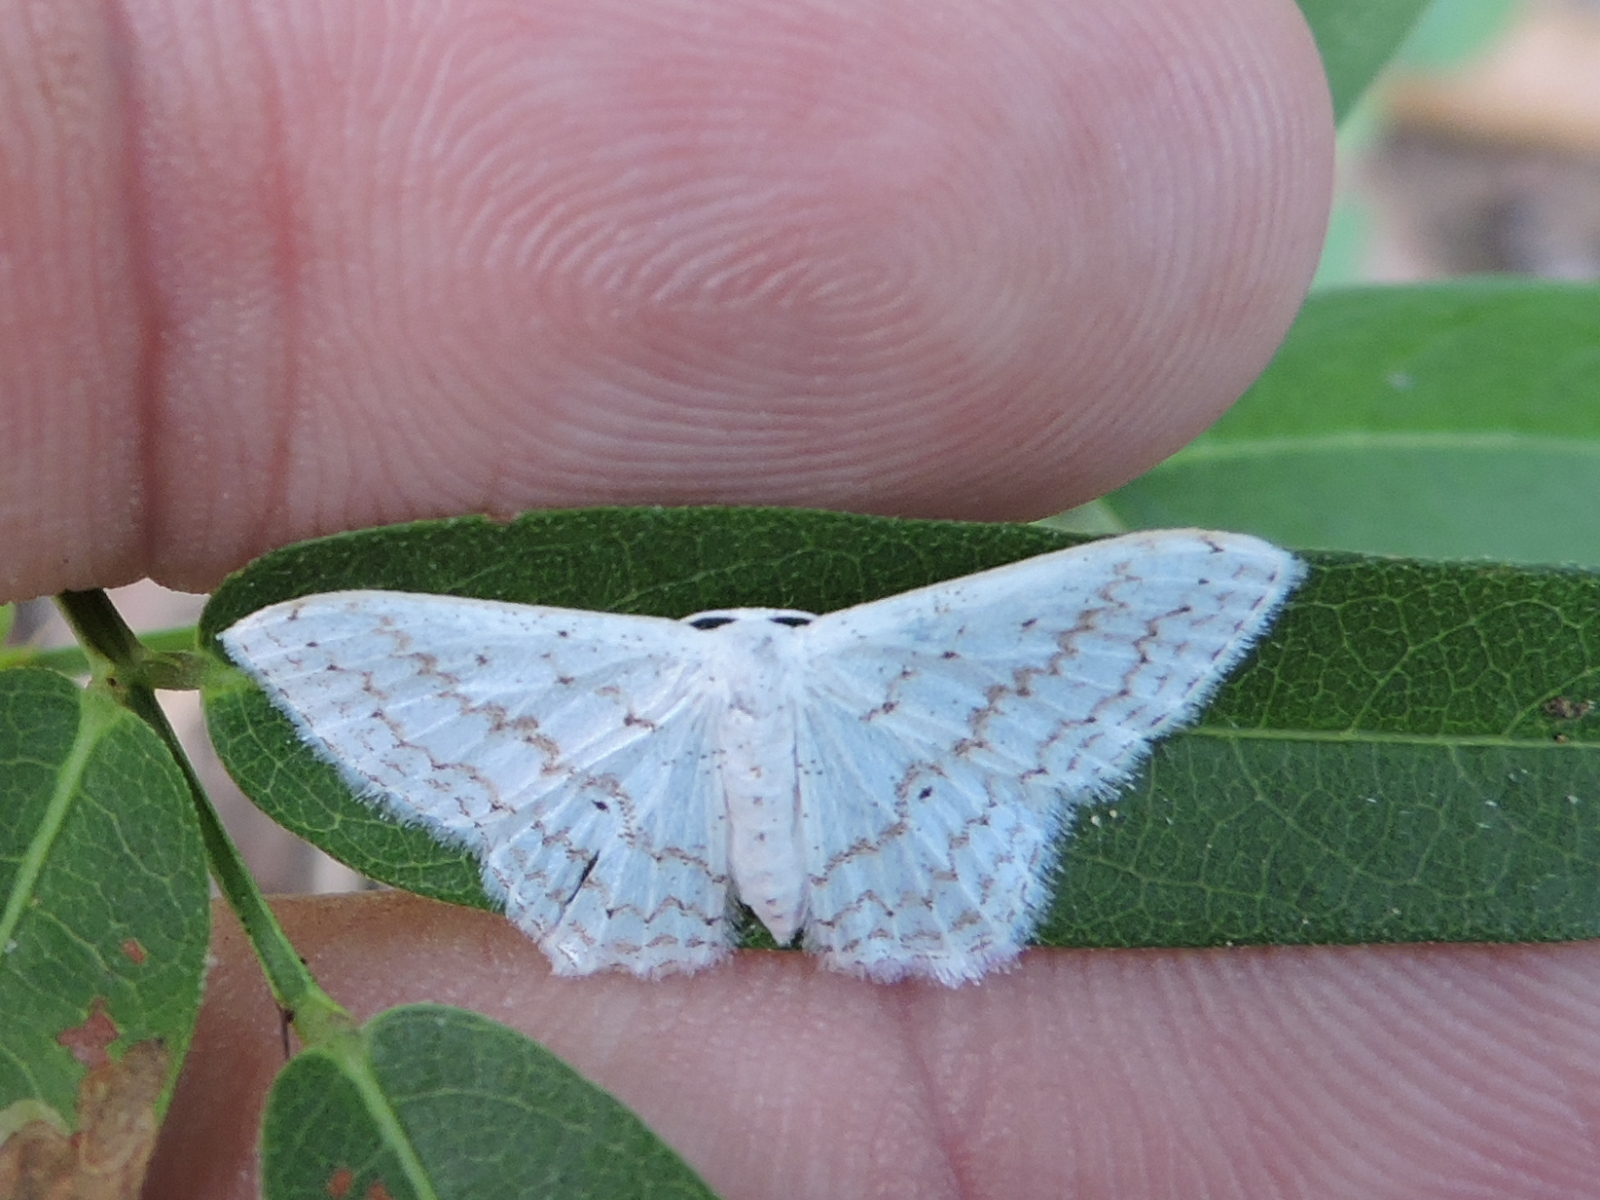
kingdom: Animalia
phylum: Arthropoda
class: Insecta
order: Lepidoptera
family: Geometridae
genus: Idaea
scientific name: Idaea tacturata
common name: Dot-lined wave
